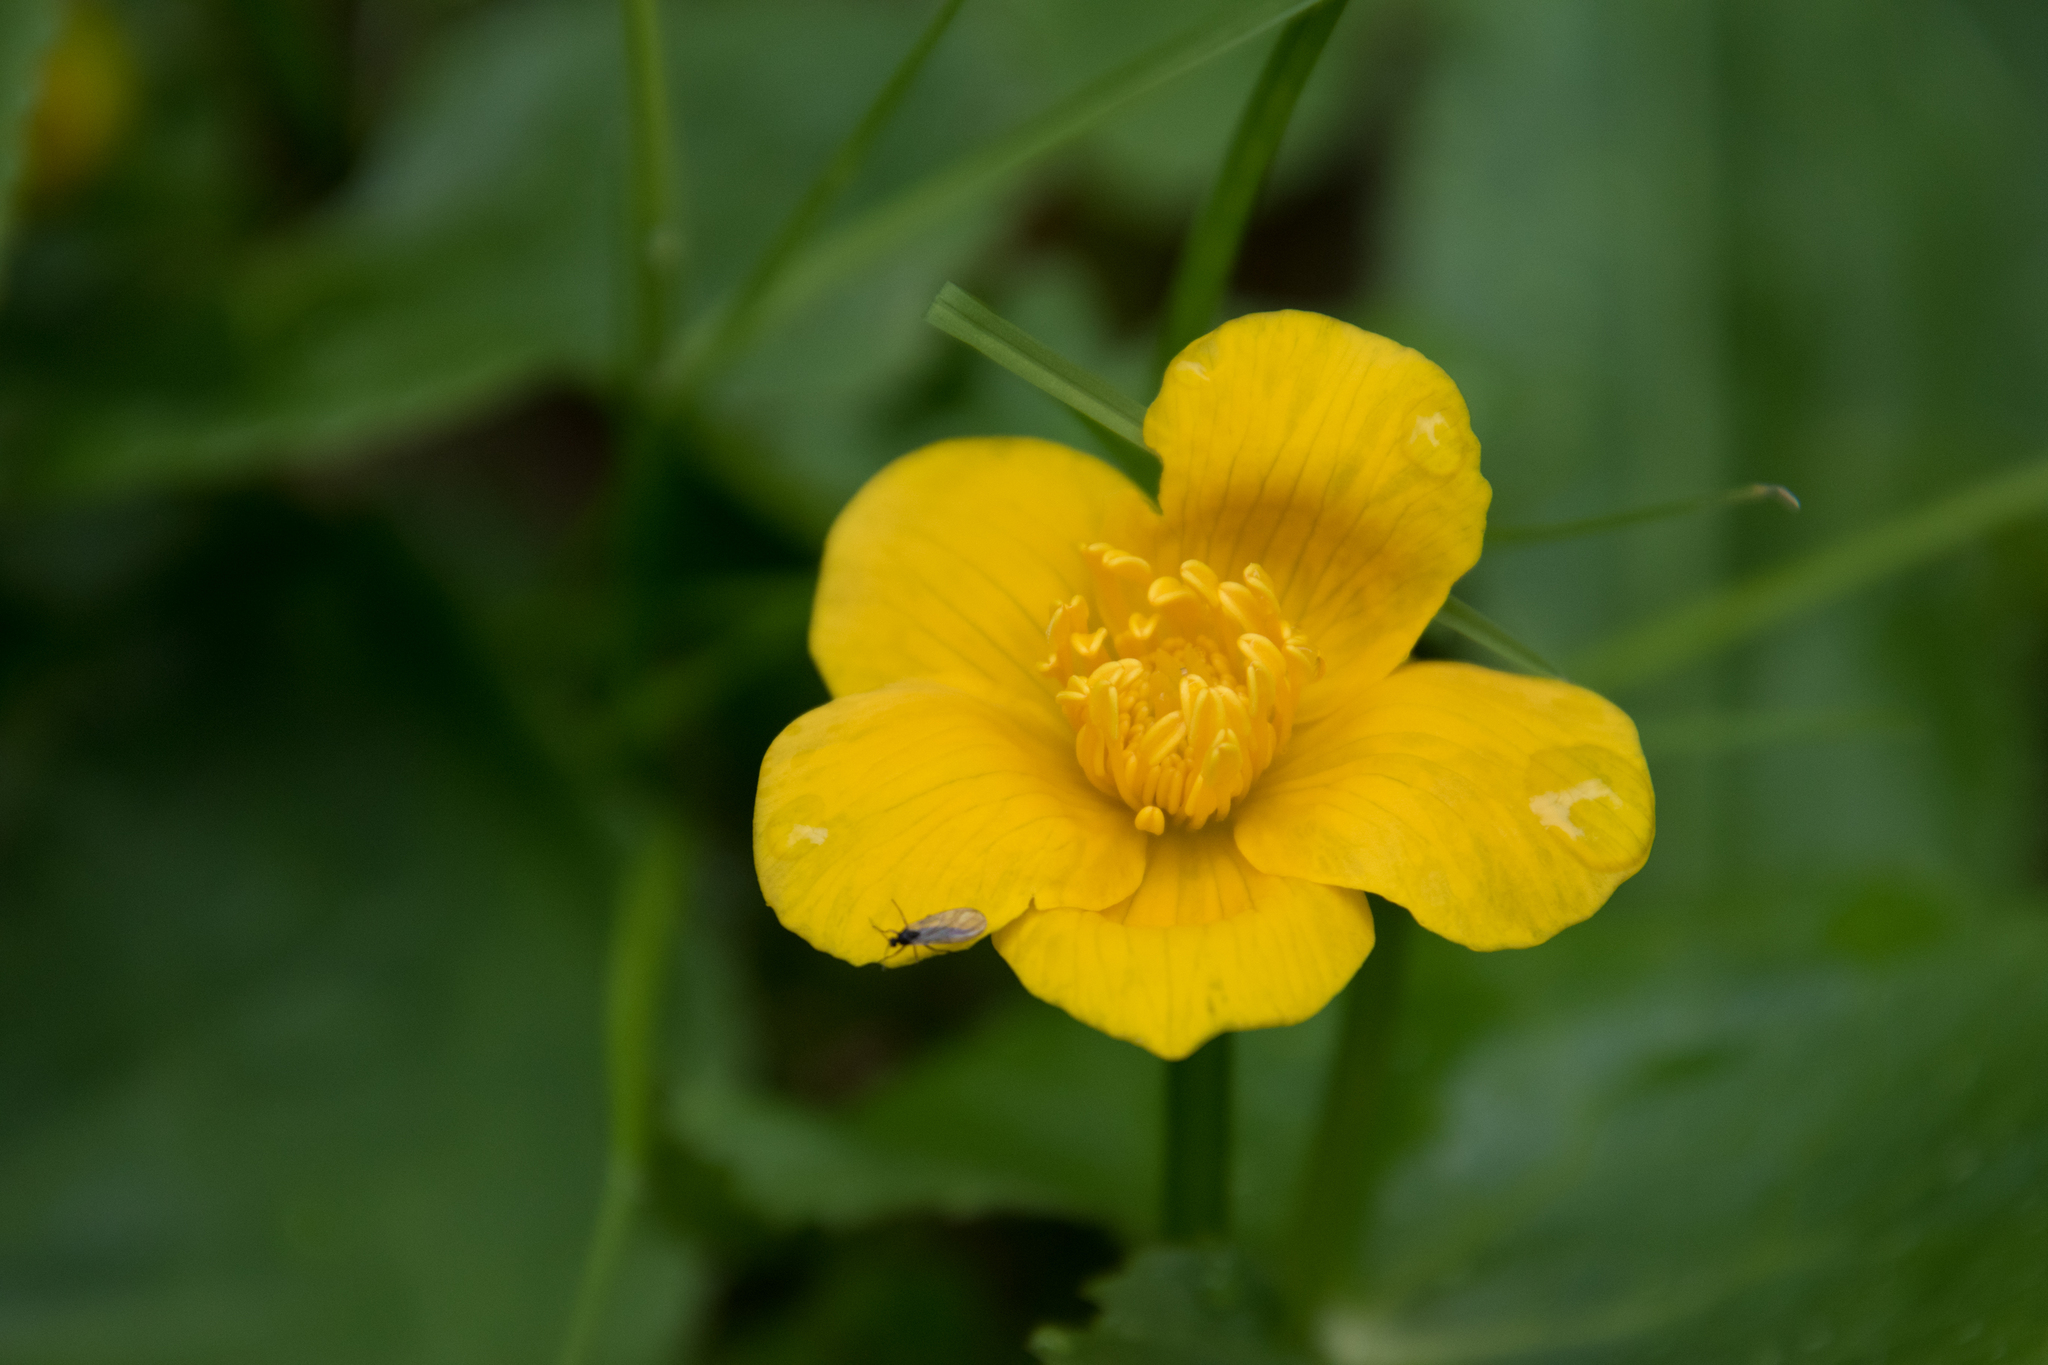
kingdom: Plantae
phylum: Tracheophyta
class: Magnoliopsida
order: Ranunculales
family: Ranunculaceae
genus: Caltha
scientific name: Caltha palustris
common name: Marsh marigold
